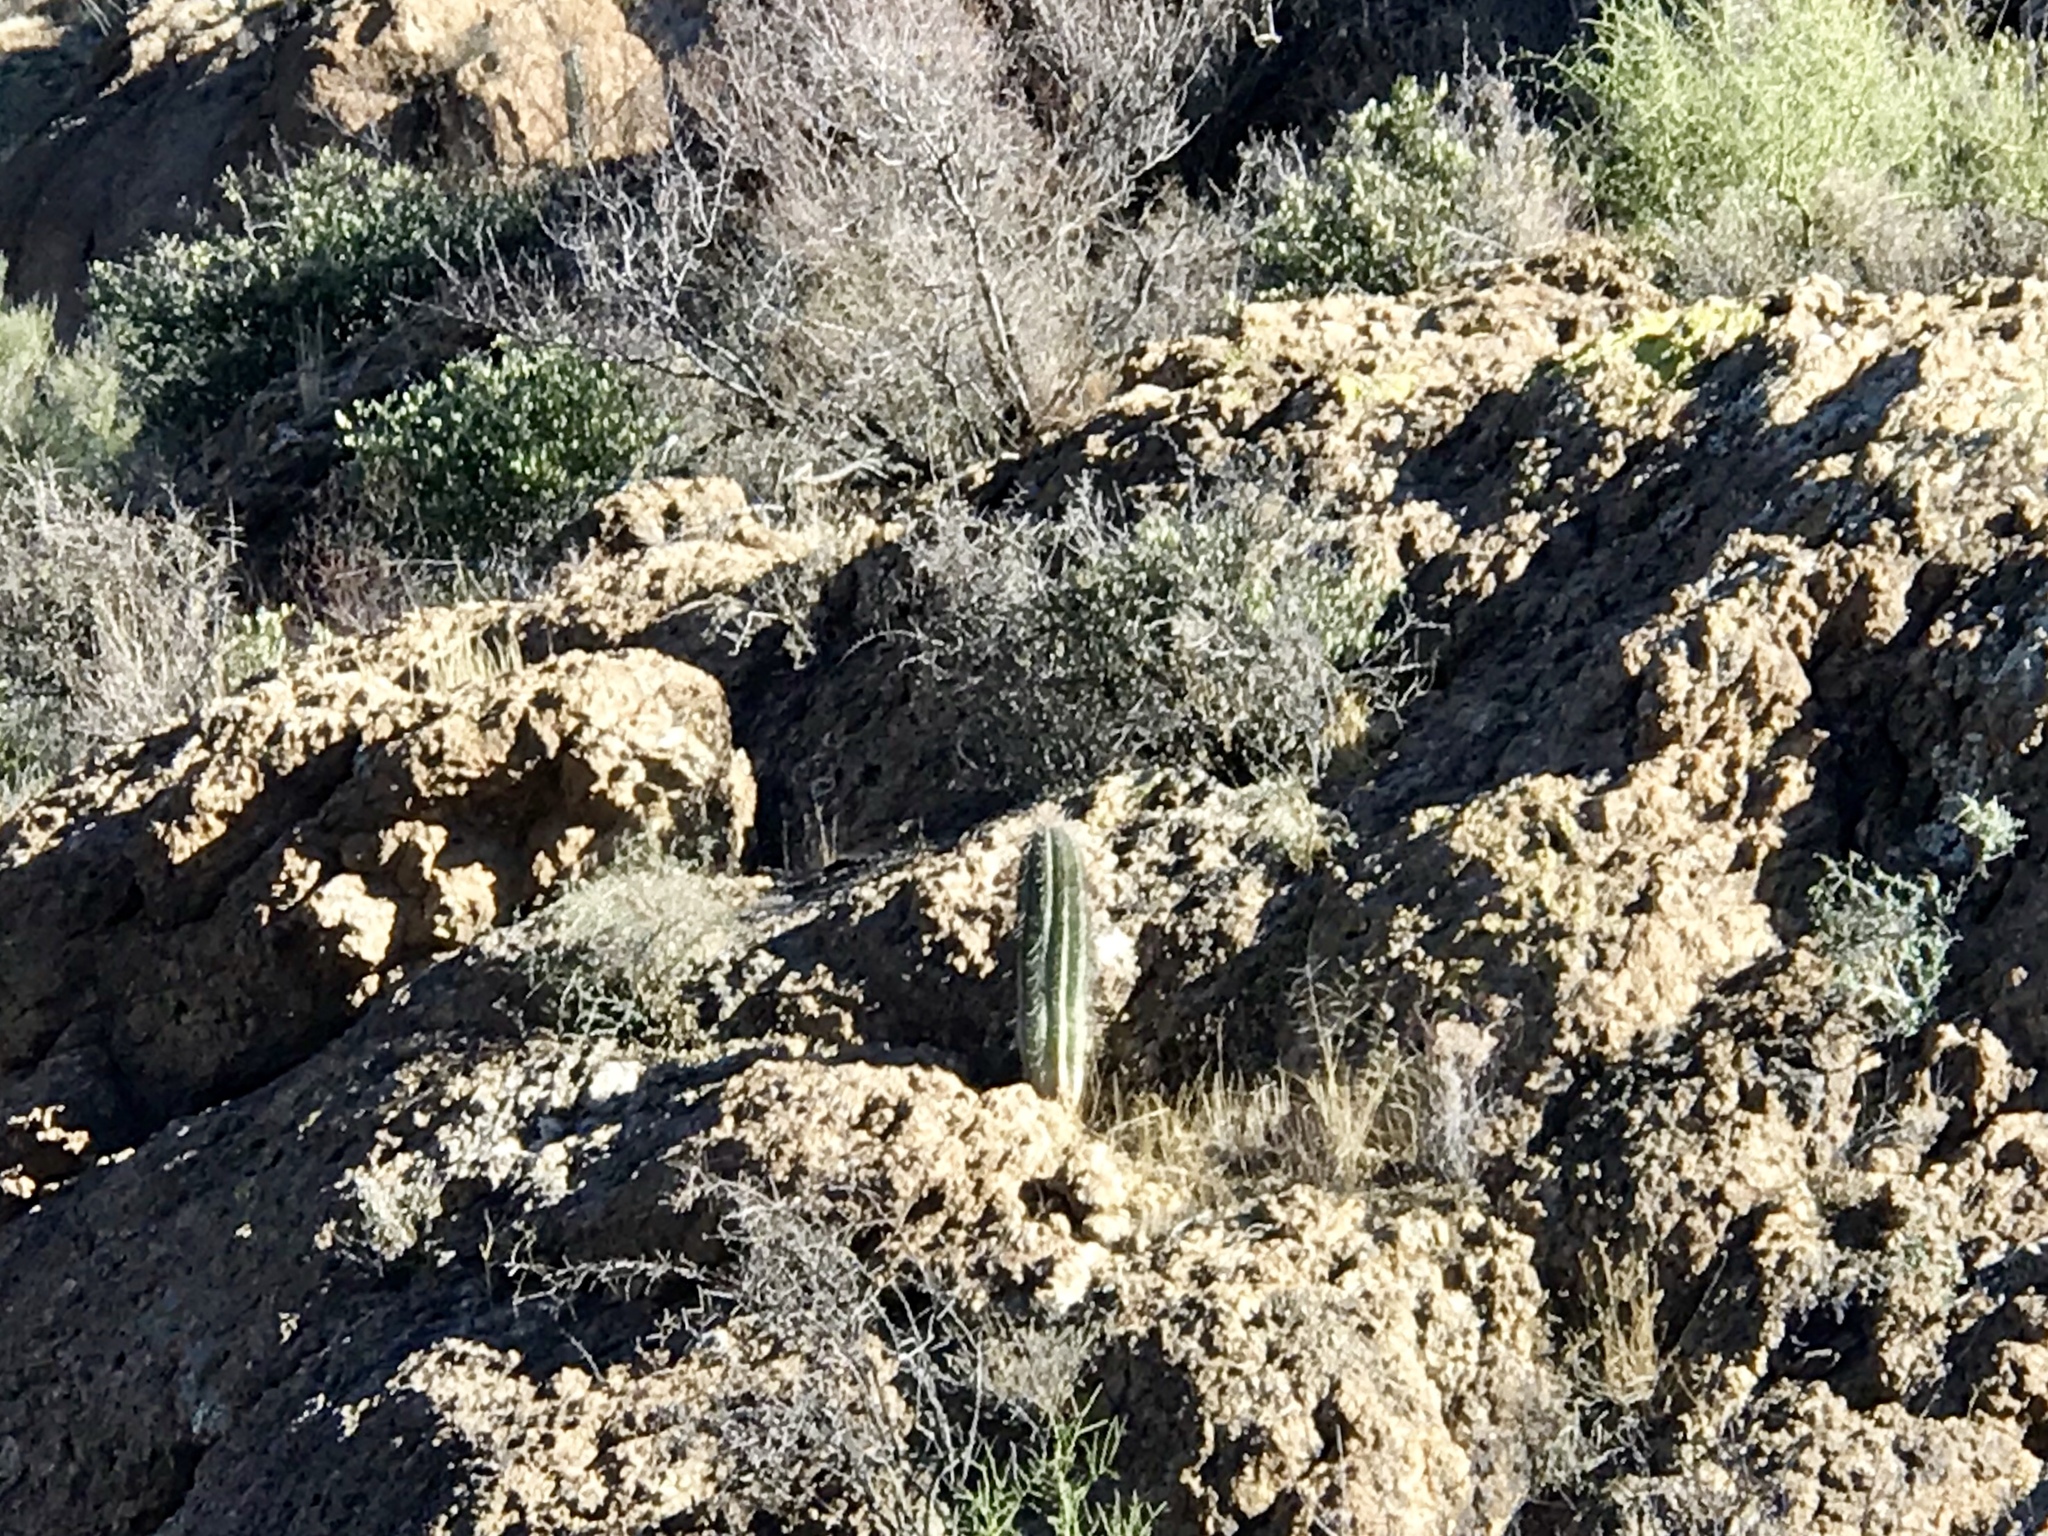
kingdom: Plantae
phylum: Tracheophyta
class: Magnoliopsida
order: Caryophyllales
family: Cactaceae
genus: Carnegiea
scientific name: Carnegiea gigantea
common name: Saguaro
